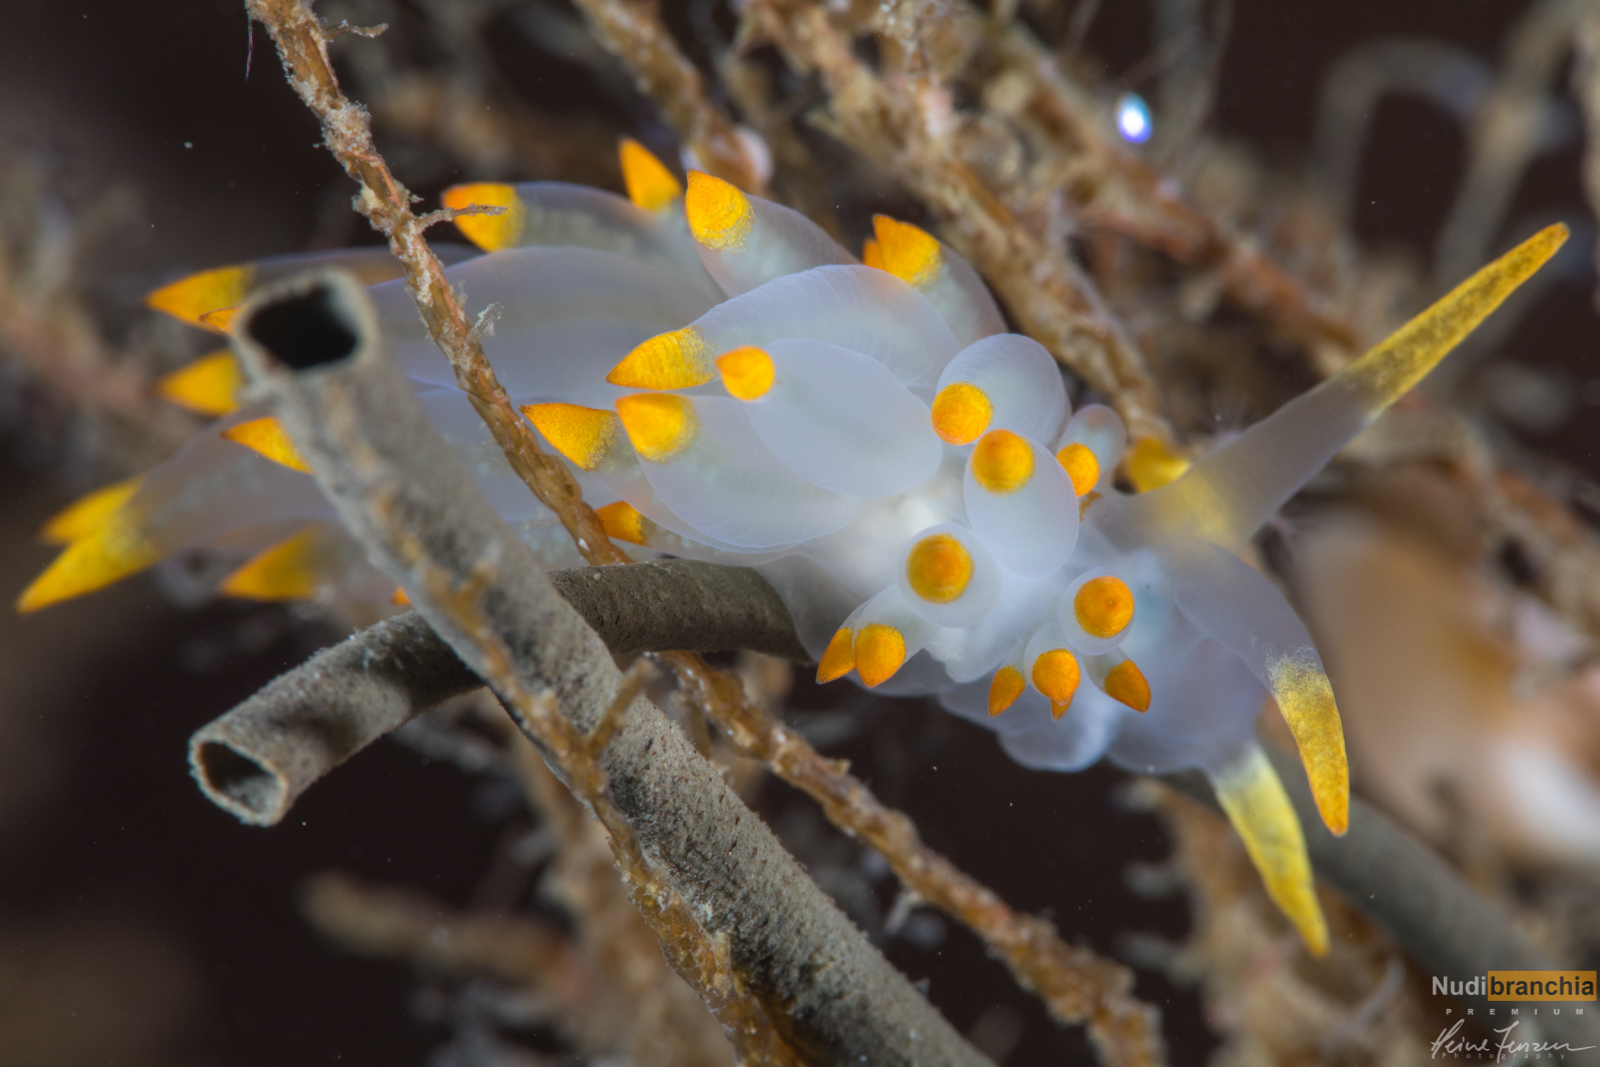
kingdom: Animalia
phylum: Mollusca
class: Gastropoda
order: Nudibranchia
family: Eubranchidae
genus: Amphorina
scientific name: Amphorina farrani
